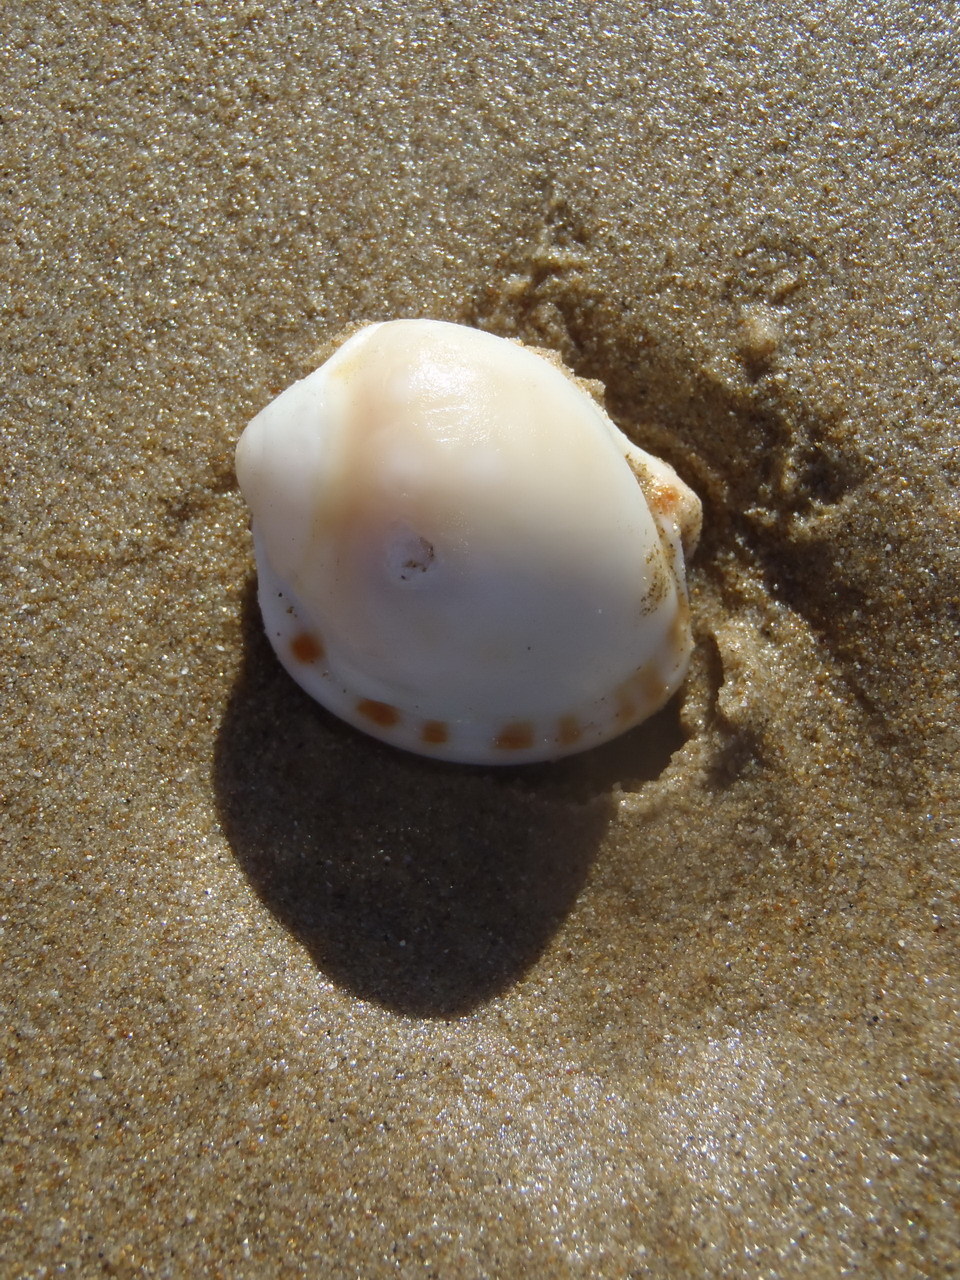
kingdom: Animalia
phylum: Mollusca
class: Gastropoda
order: Littorinimorpha
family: Cassidae
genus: Semicassis
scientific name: Semicassis zeylanica
